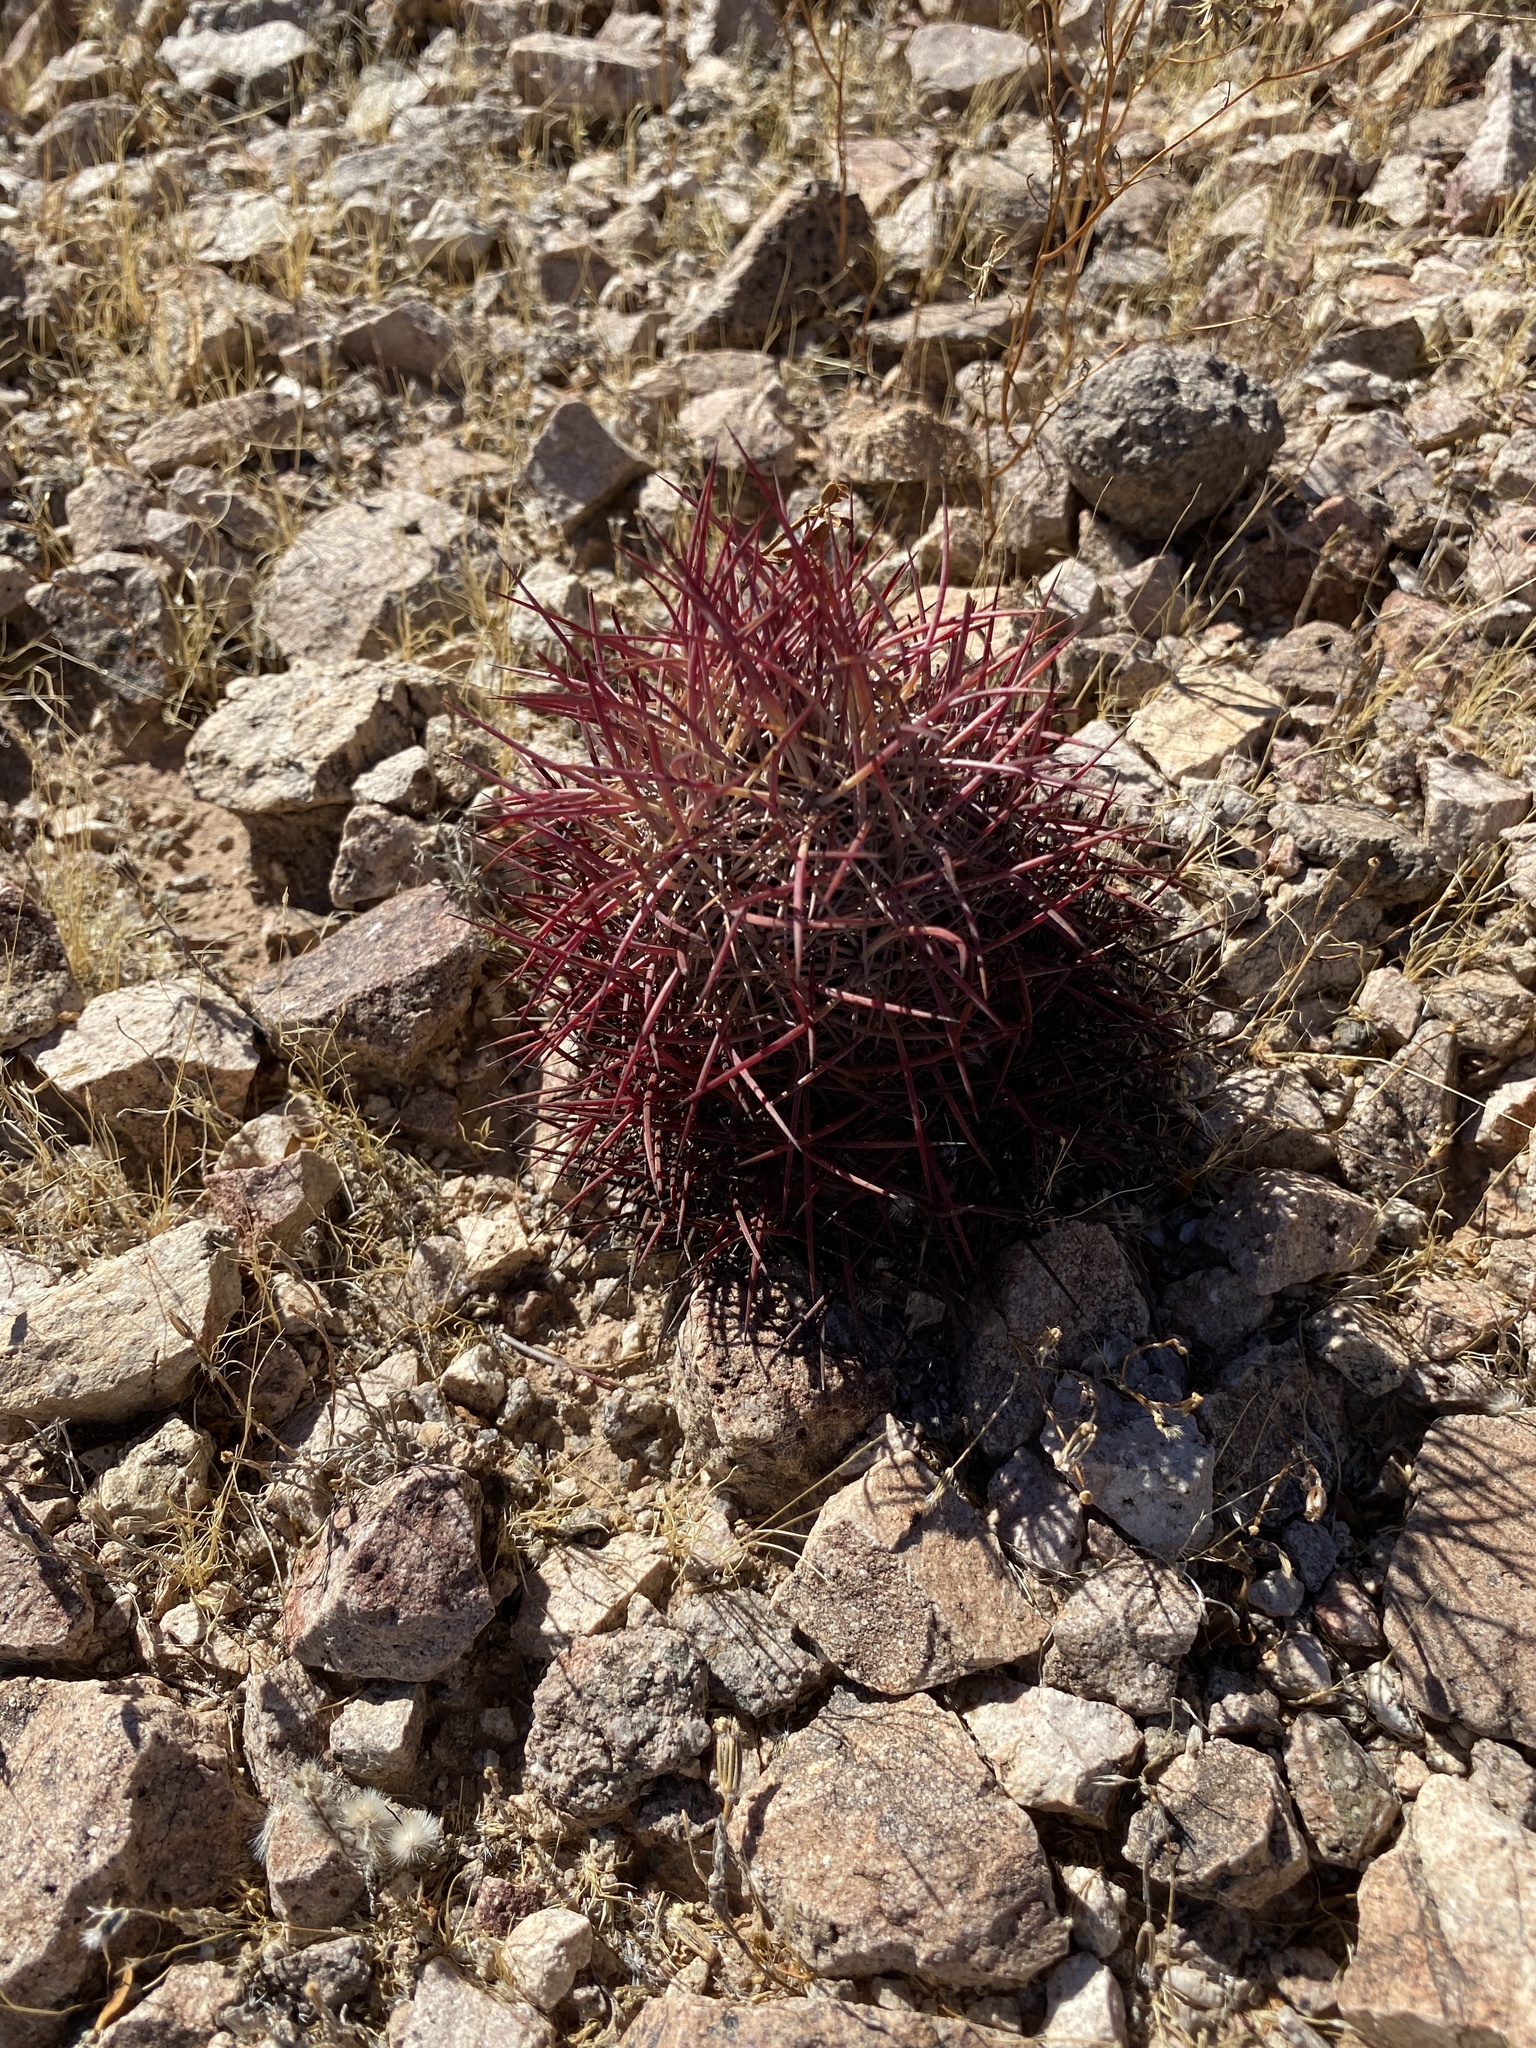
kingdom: Plantae
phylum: Tracheophyta
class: Magnoliopsida
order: Caryophyllales
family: Cactaceae
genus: Sclerocactus
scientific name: Sclerocactus johnsonii
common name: Eight-spine fishhook cactus
